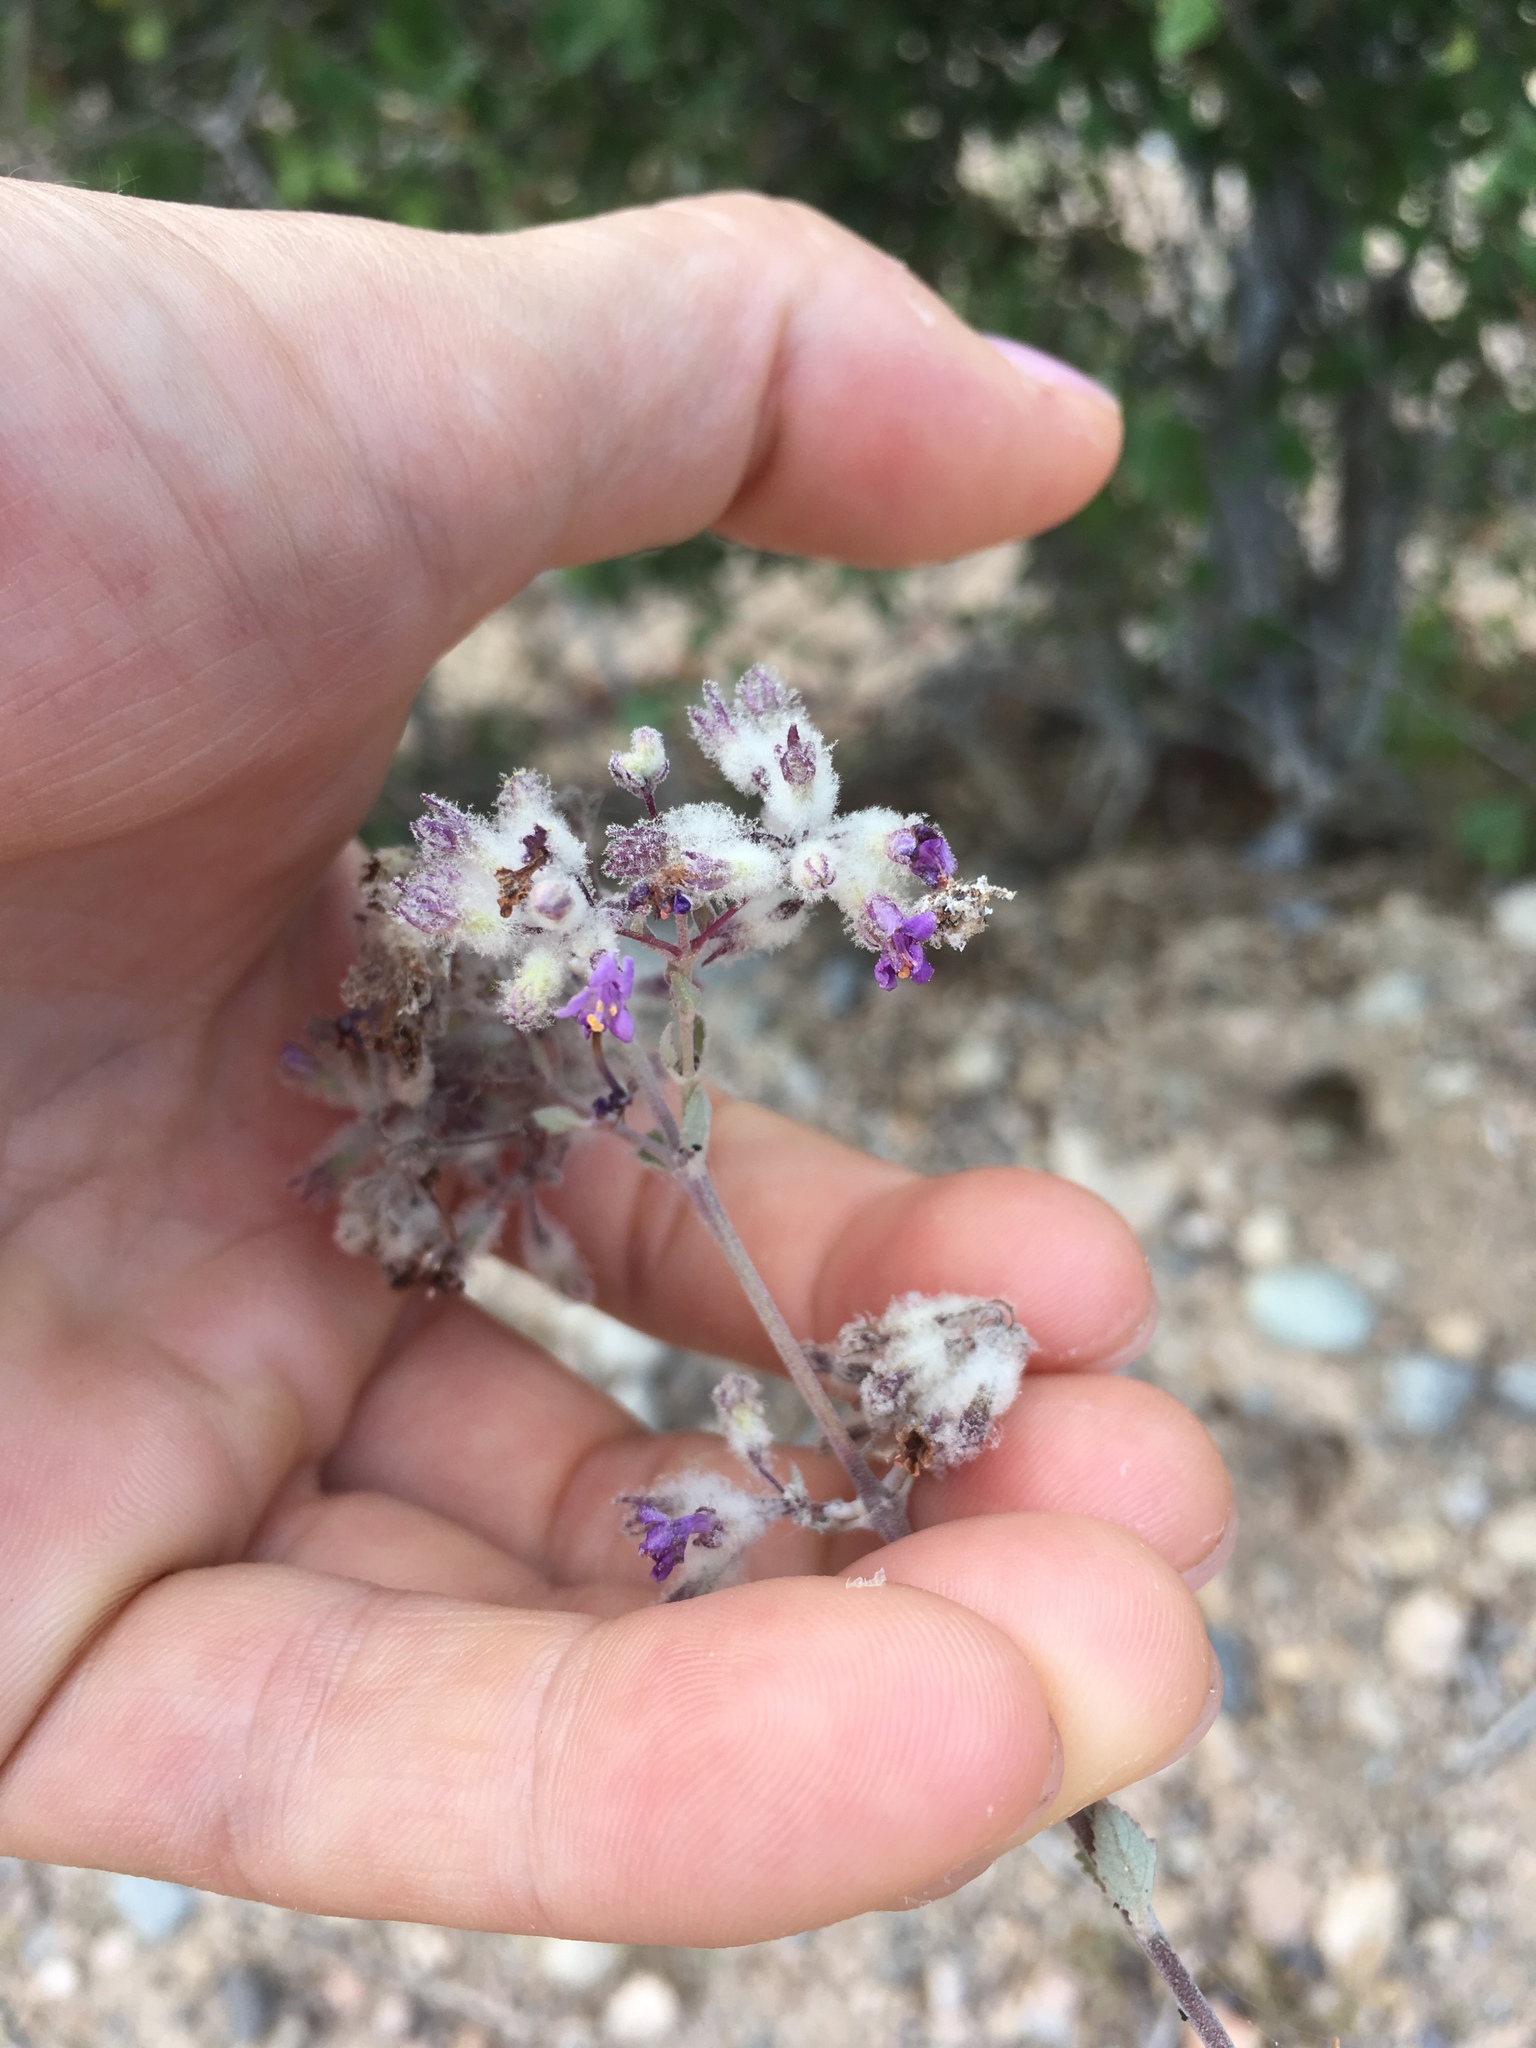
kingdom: Plantae
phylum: Tracheophyta
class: Magnoliopsida
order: Lamiales
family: Lamiaceae
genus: Condea
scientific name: Condea laniflora
